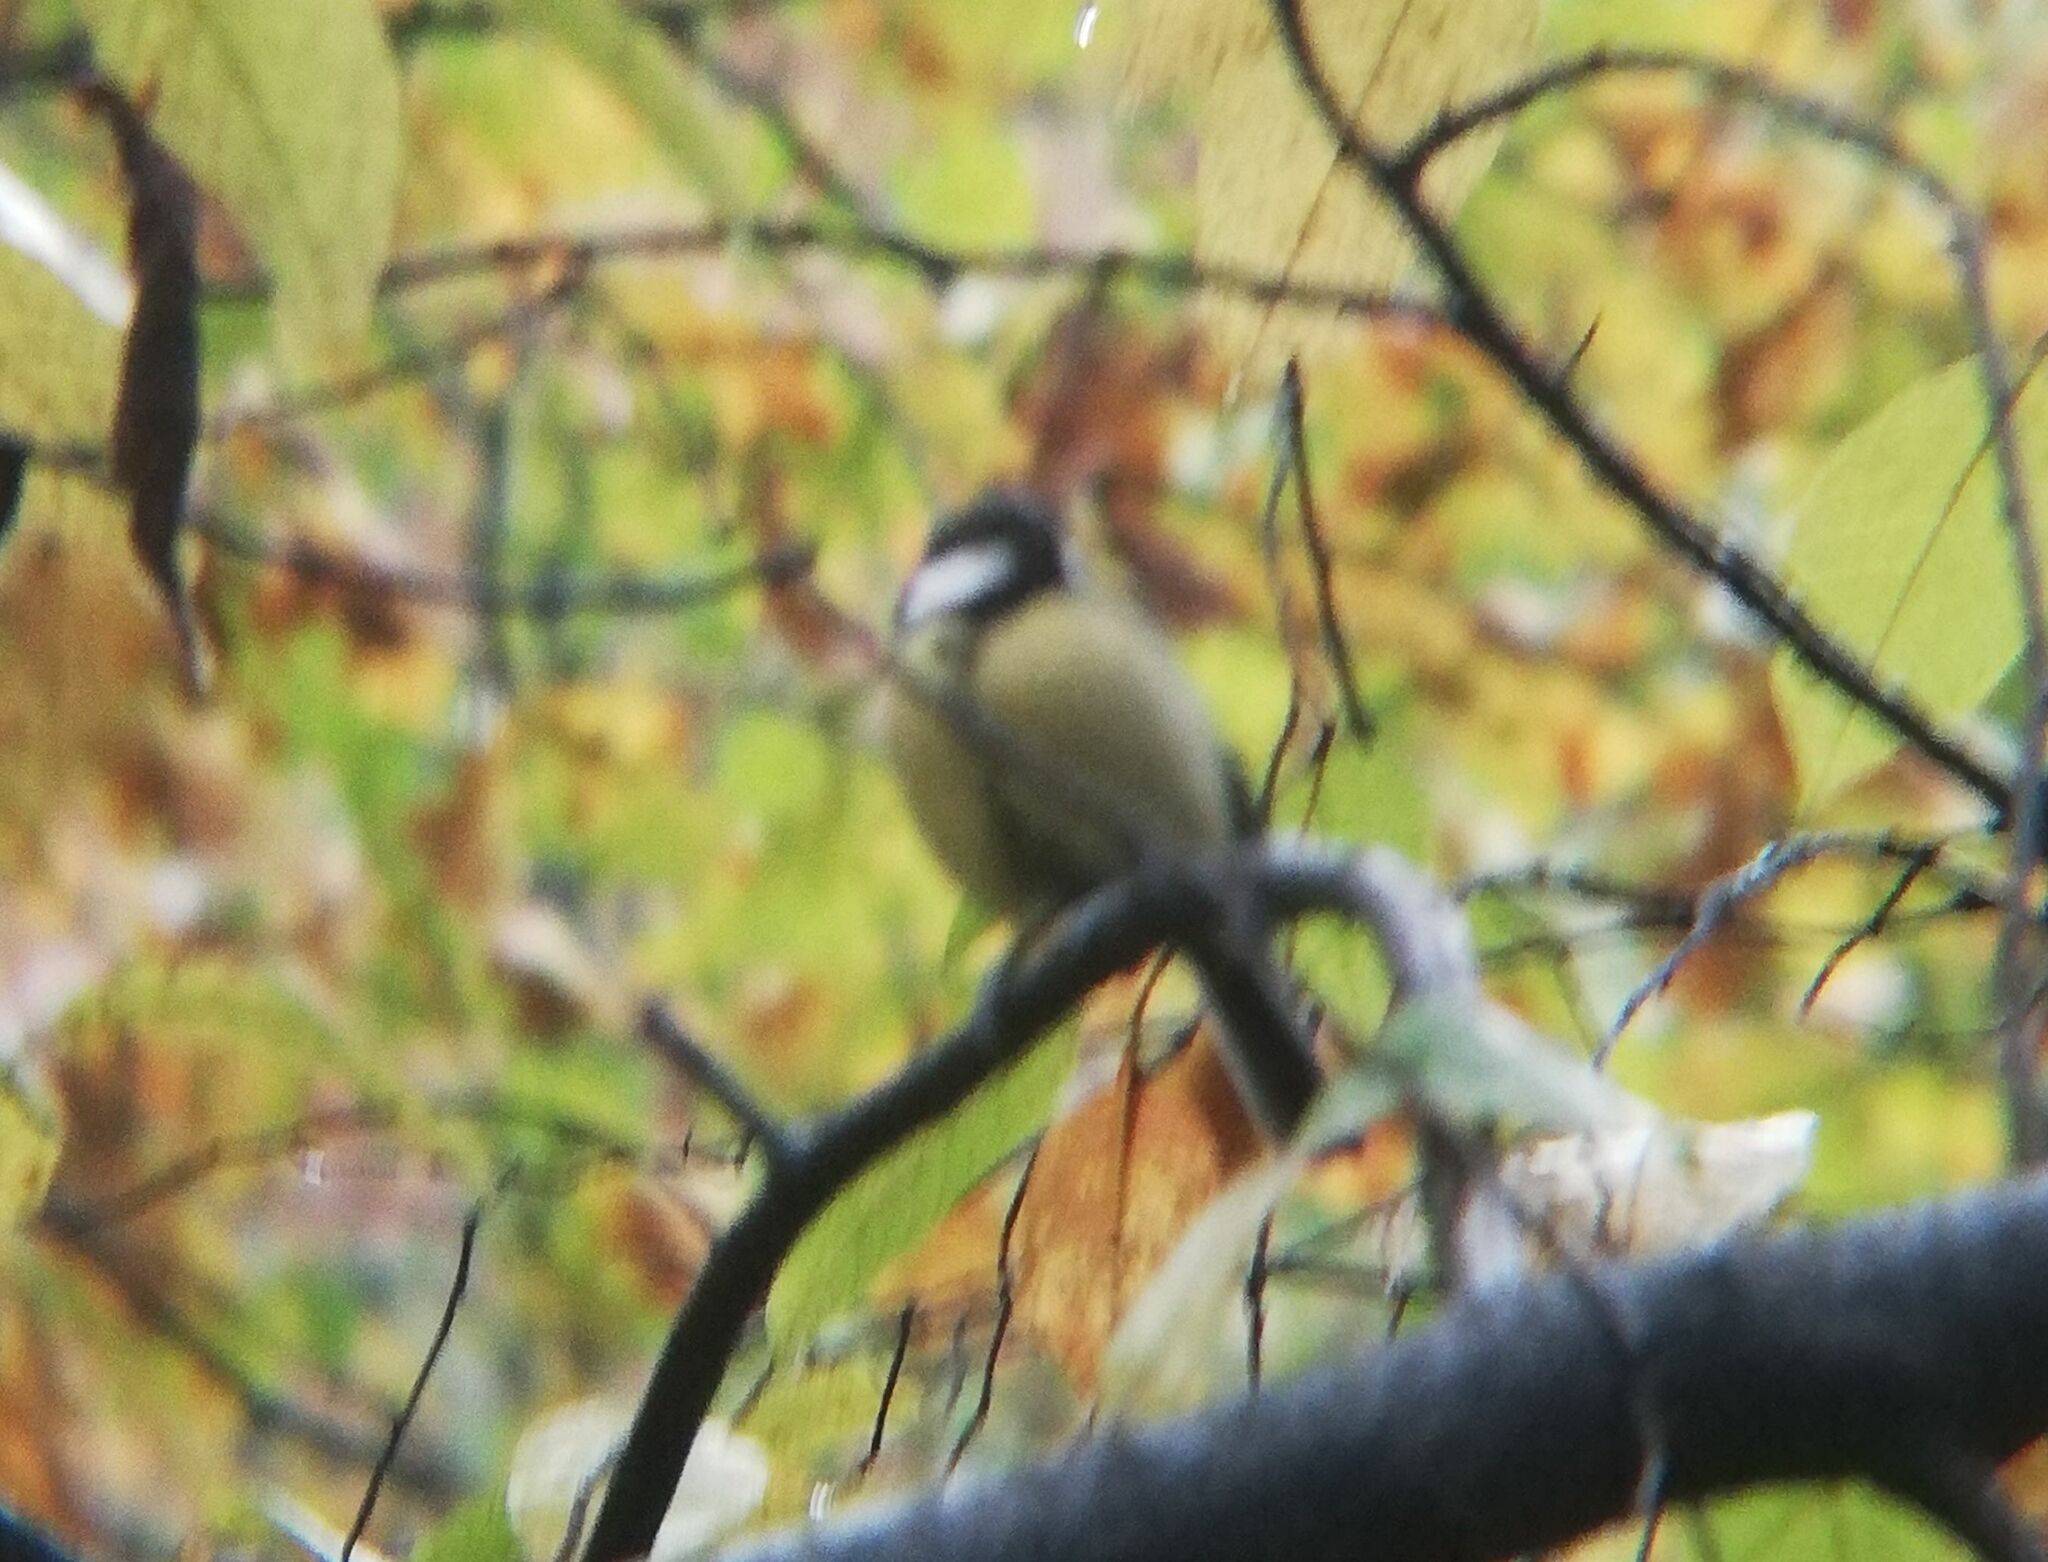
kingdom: Animalia
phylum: Chordata
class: Aves
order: Passeriformes
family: Paridae
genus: Parus
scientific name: Parus major
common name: Great tit
